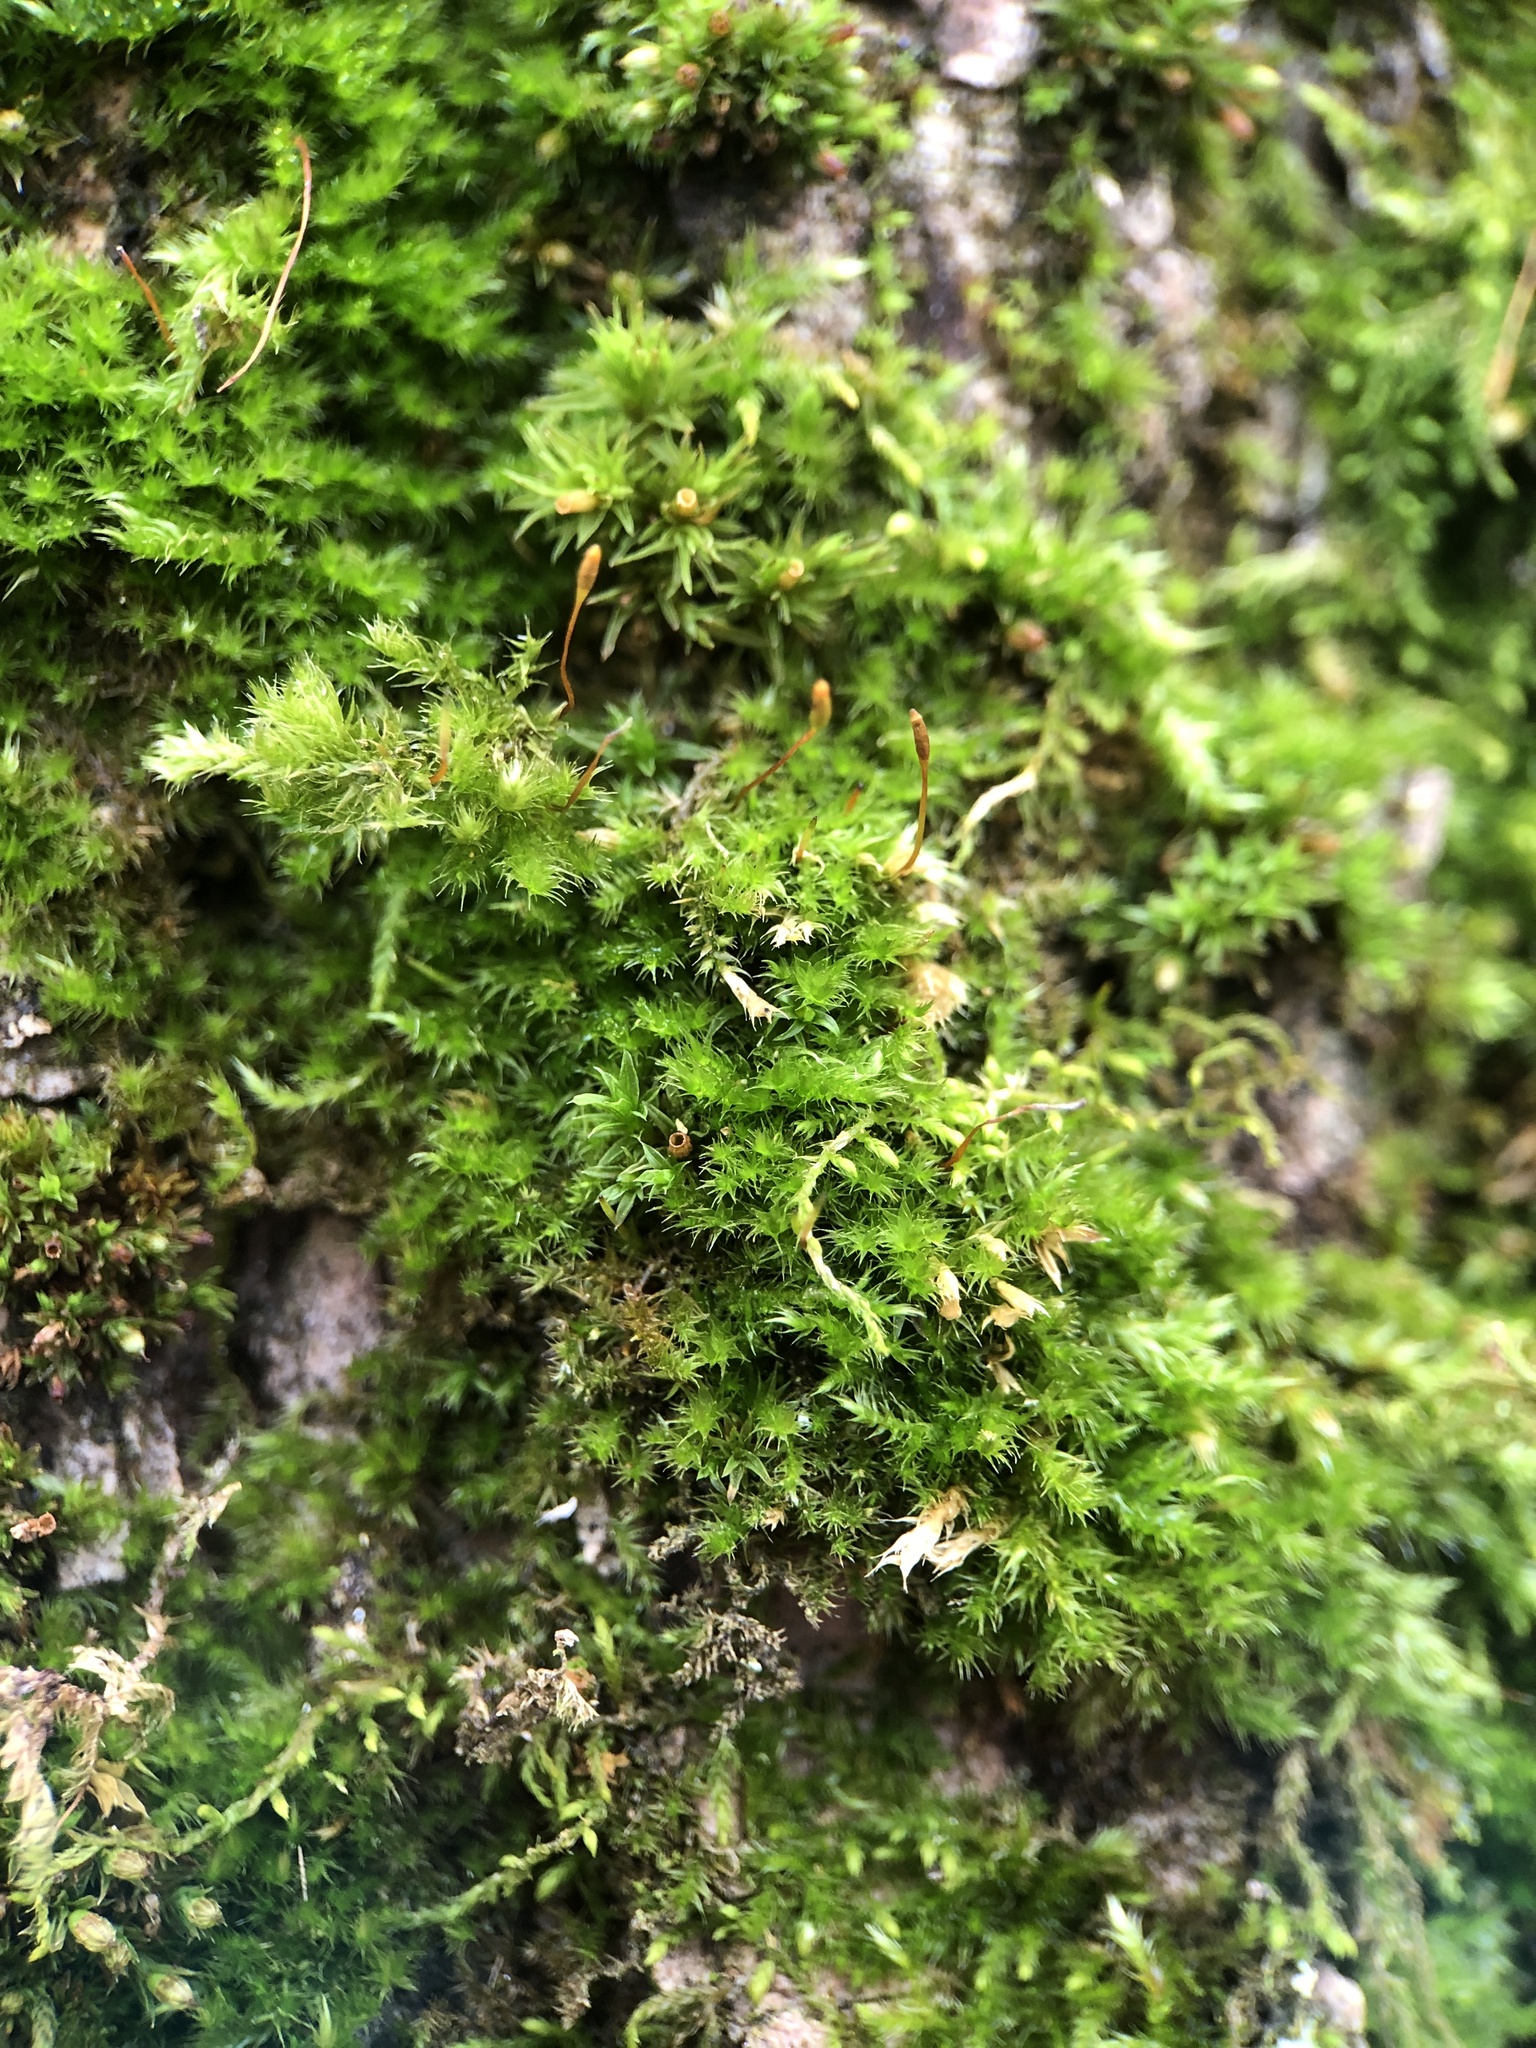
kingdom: Plantae
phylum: Bryophyta
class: Bryopsida
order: Hypnales
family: Pylaisiaceae
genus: Pylaisia
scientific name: Pylaisia polyantha
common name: Many-flowered leskea
